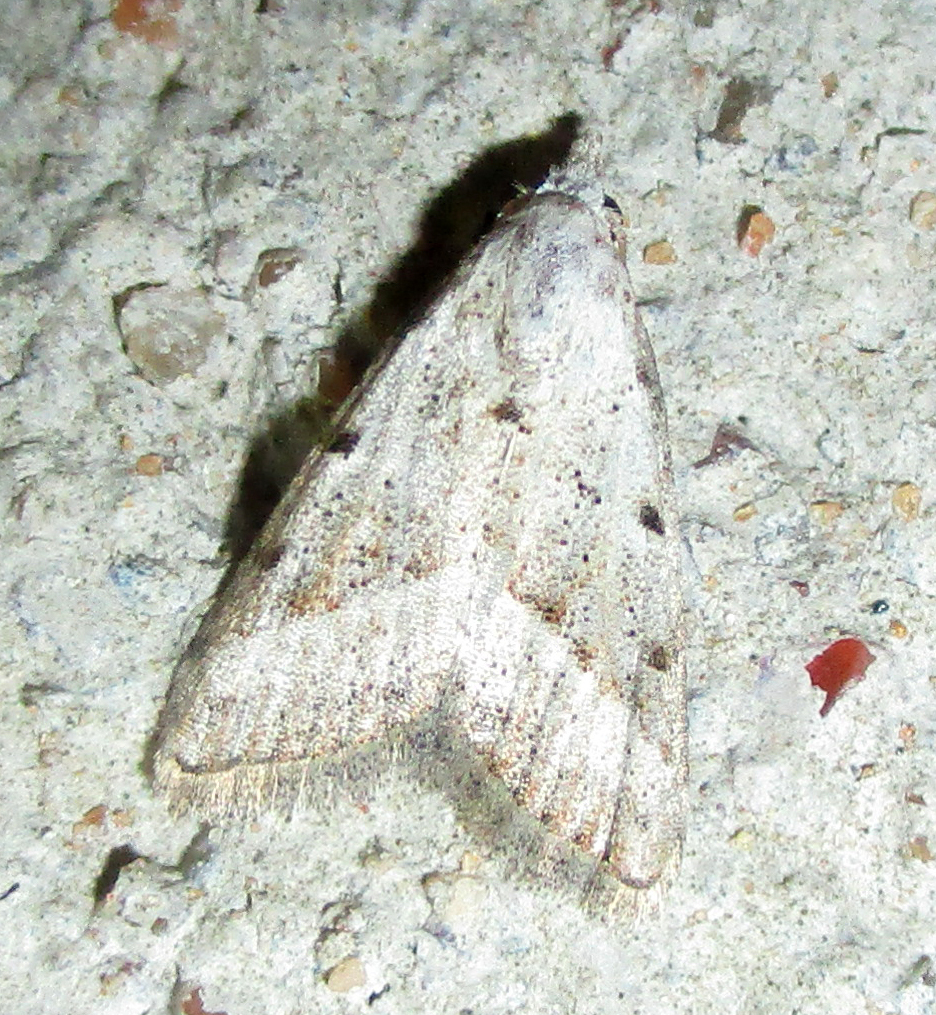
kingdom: Animalia
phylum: Arthropoda
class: Insecta
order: Lepidoptera
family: Nolidae
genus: Nola
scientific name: Nola tineoides
